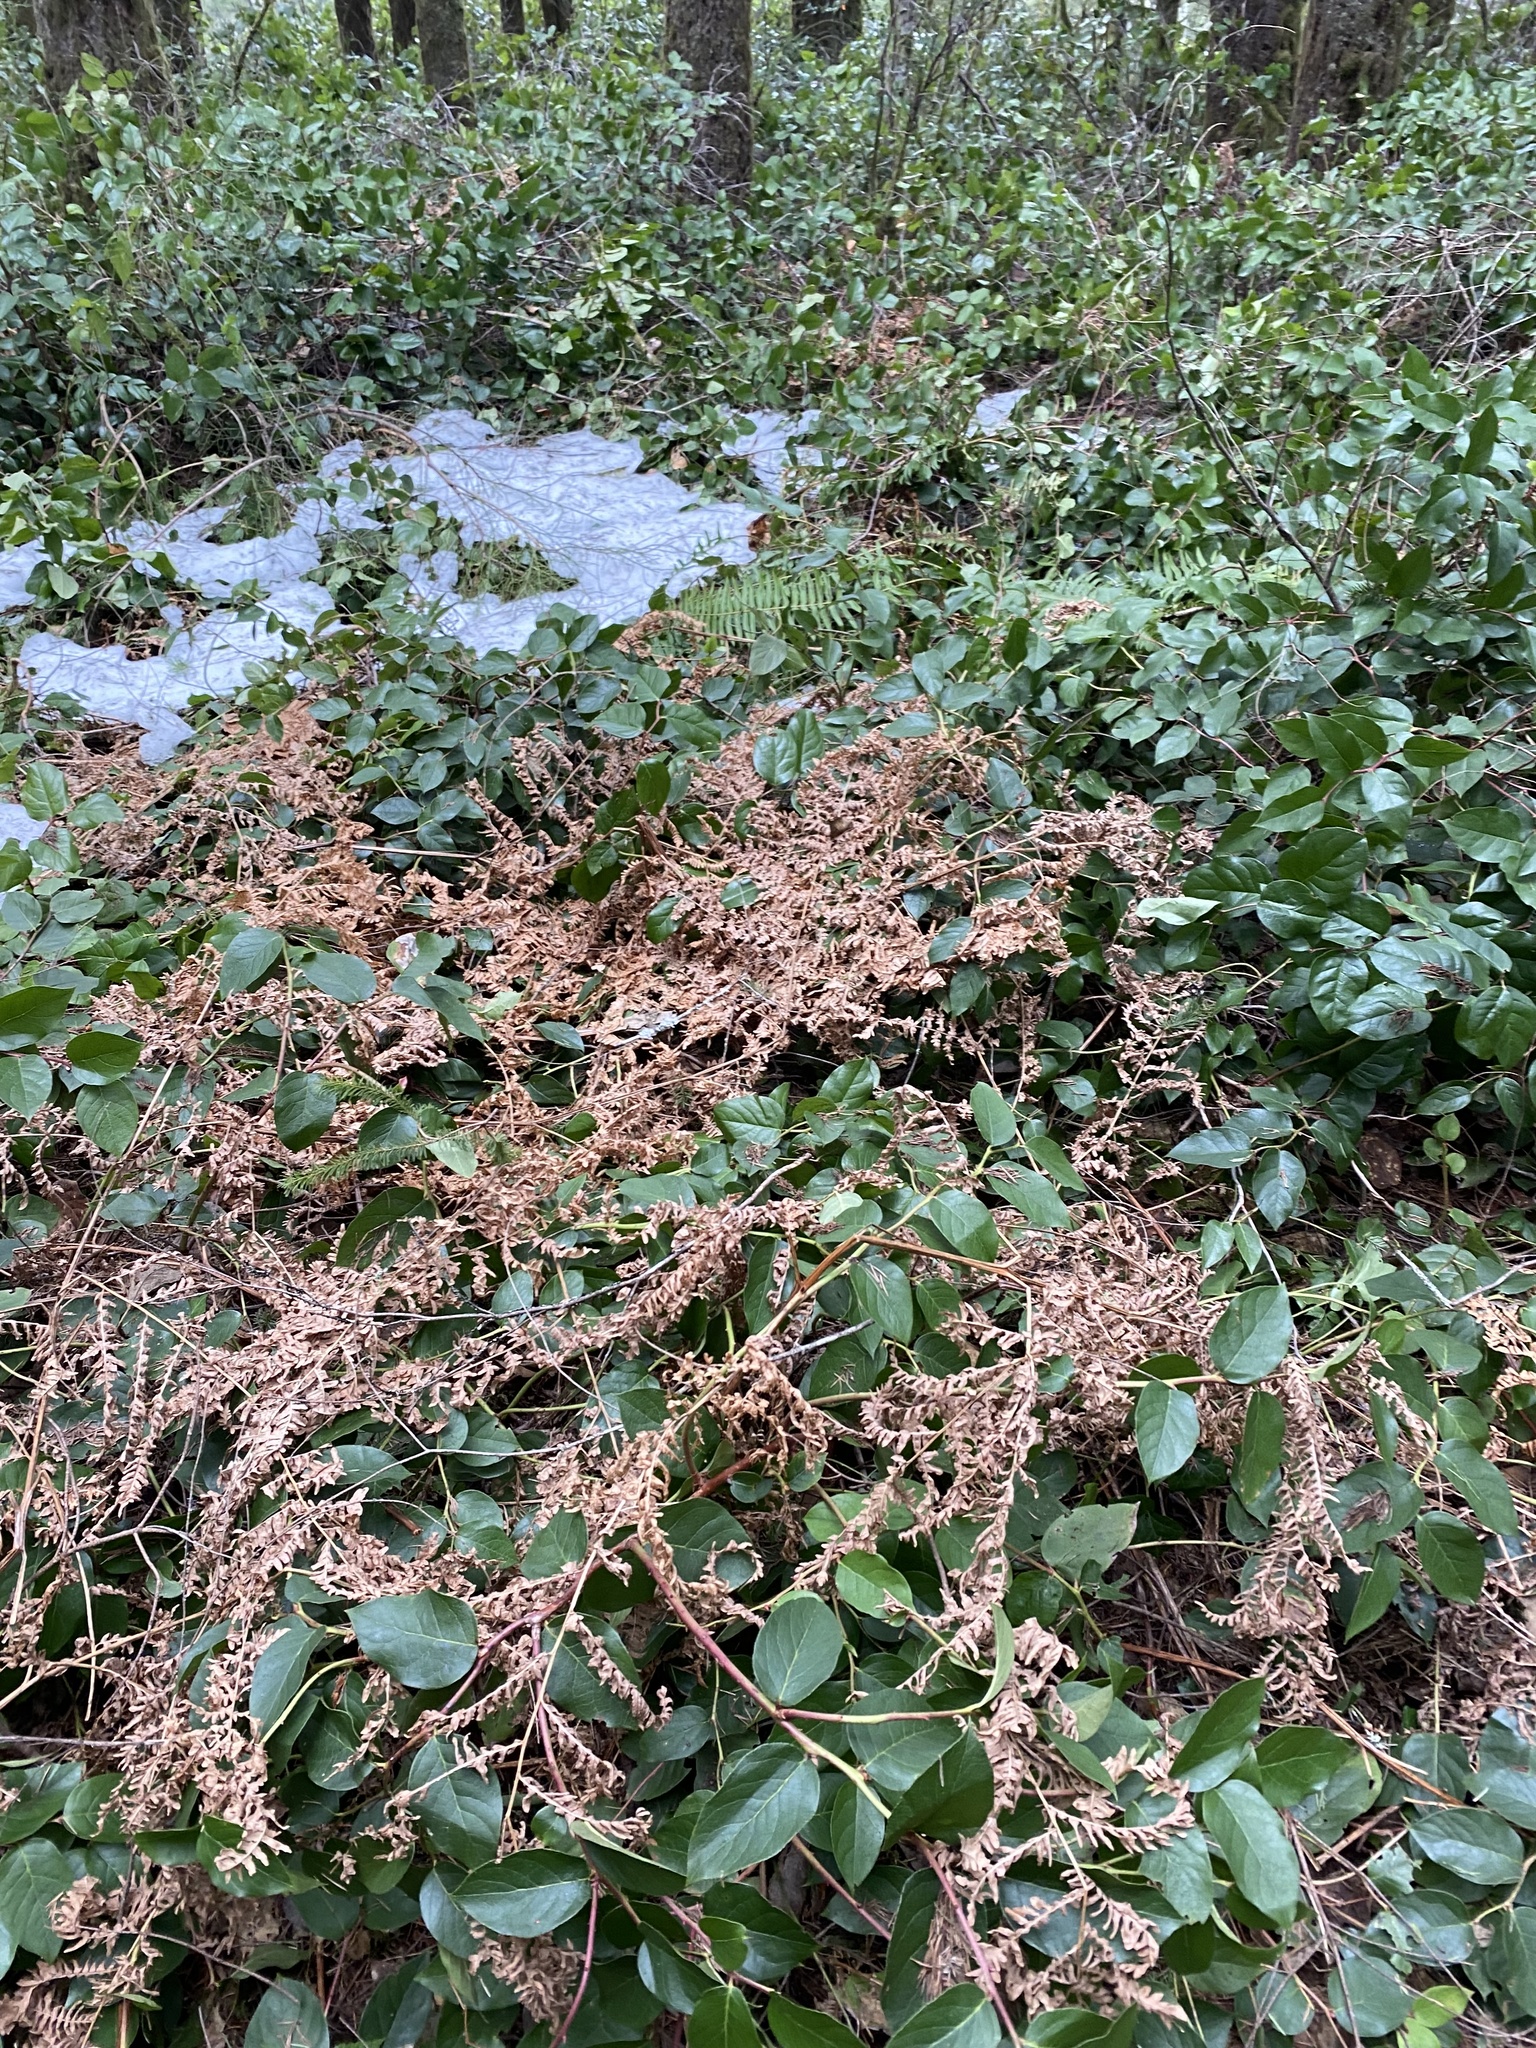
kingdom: Plantae
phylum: Tracheophyta
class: Polypodiopsida
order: Polypodiales
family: Dennstaedtiaceae
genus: Pteridium
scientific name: Pteridium aquilinum
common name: Bracken
